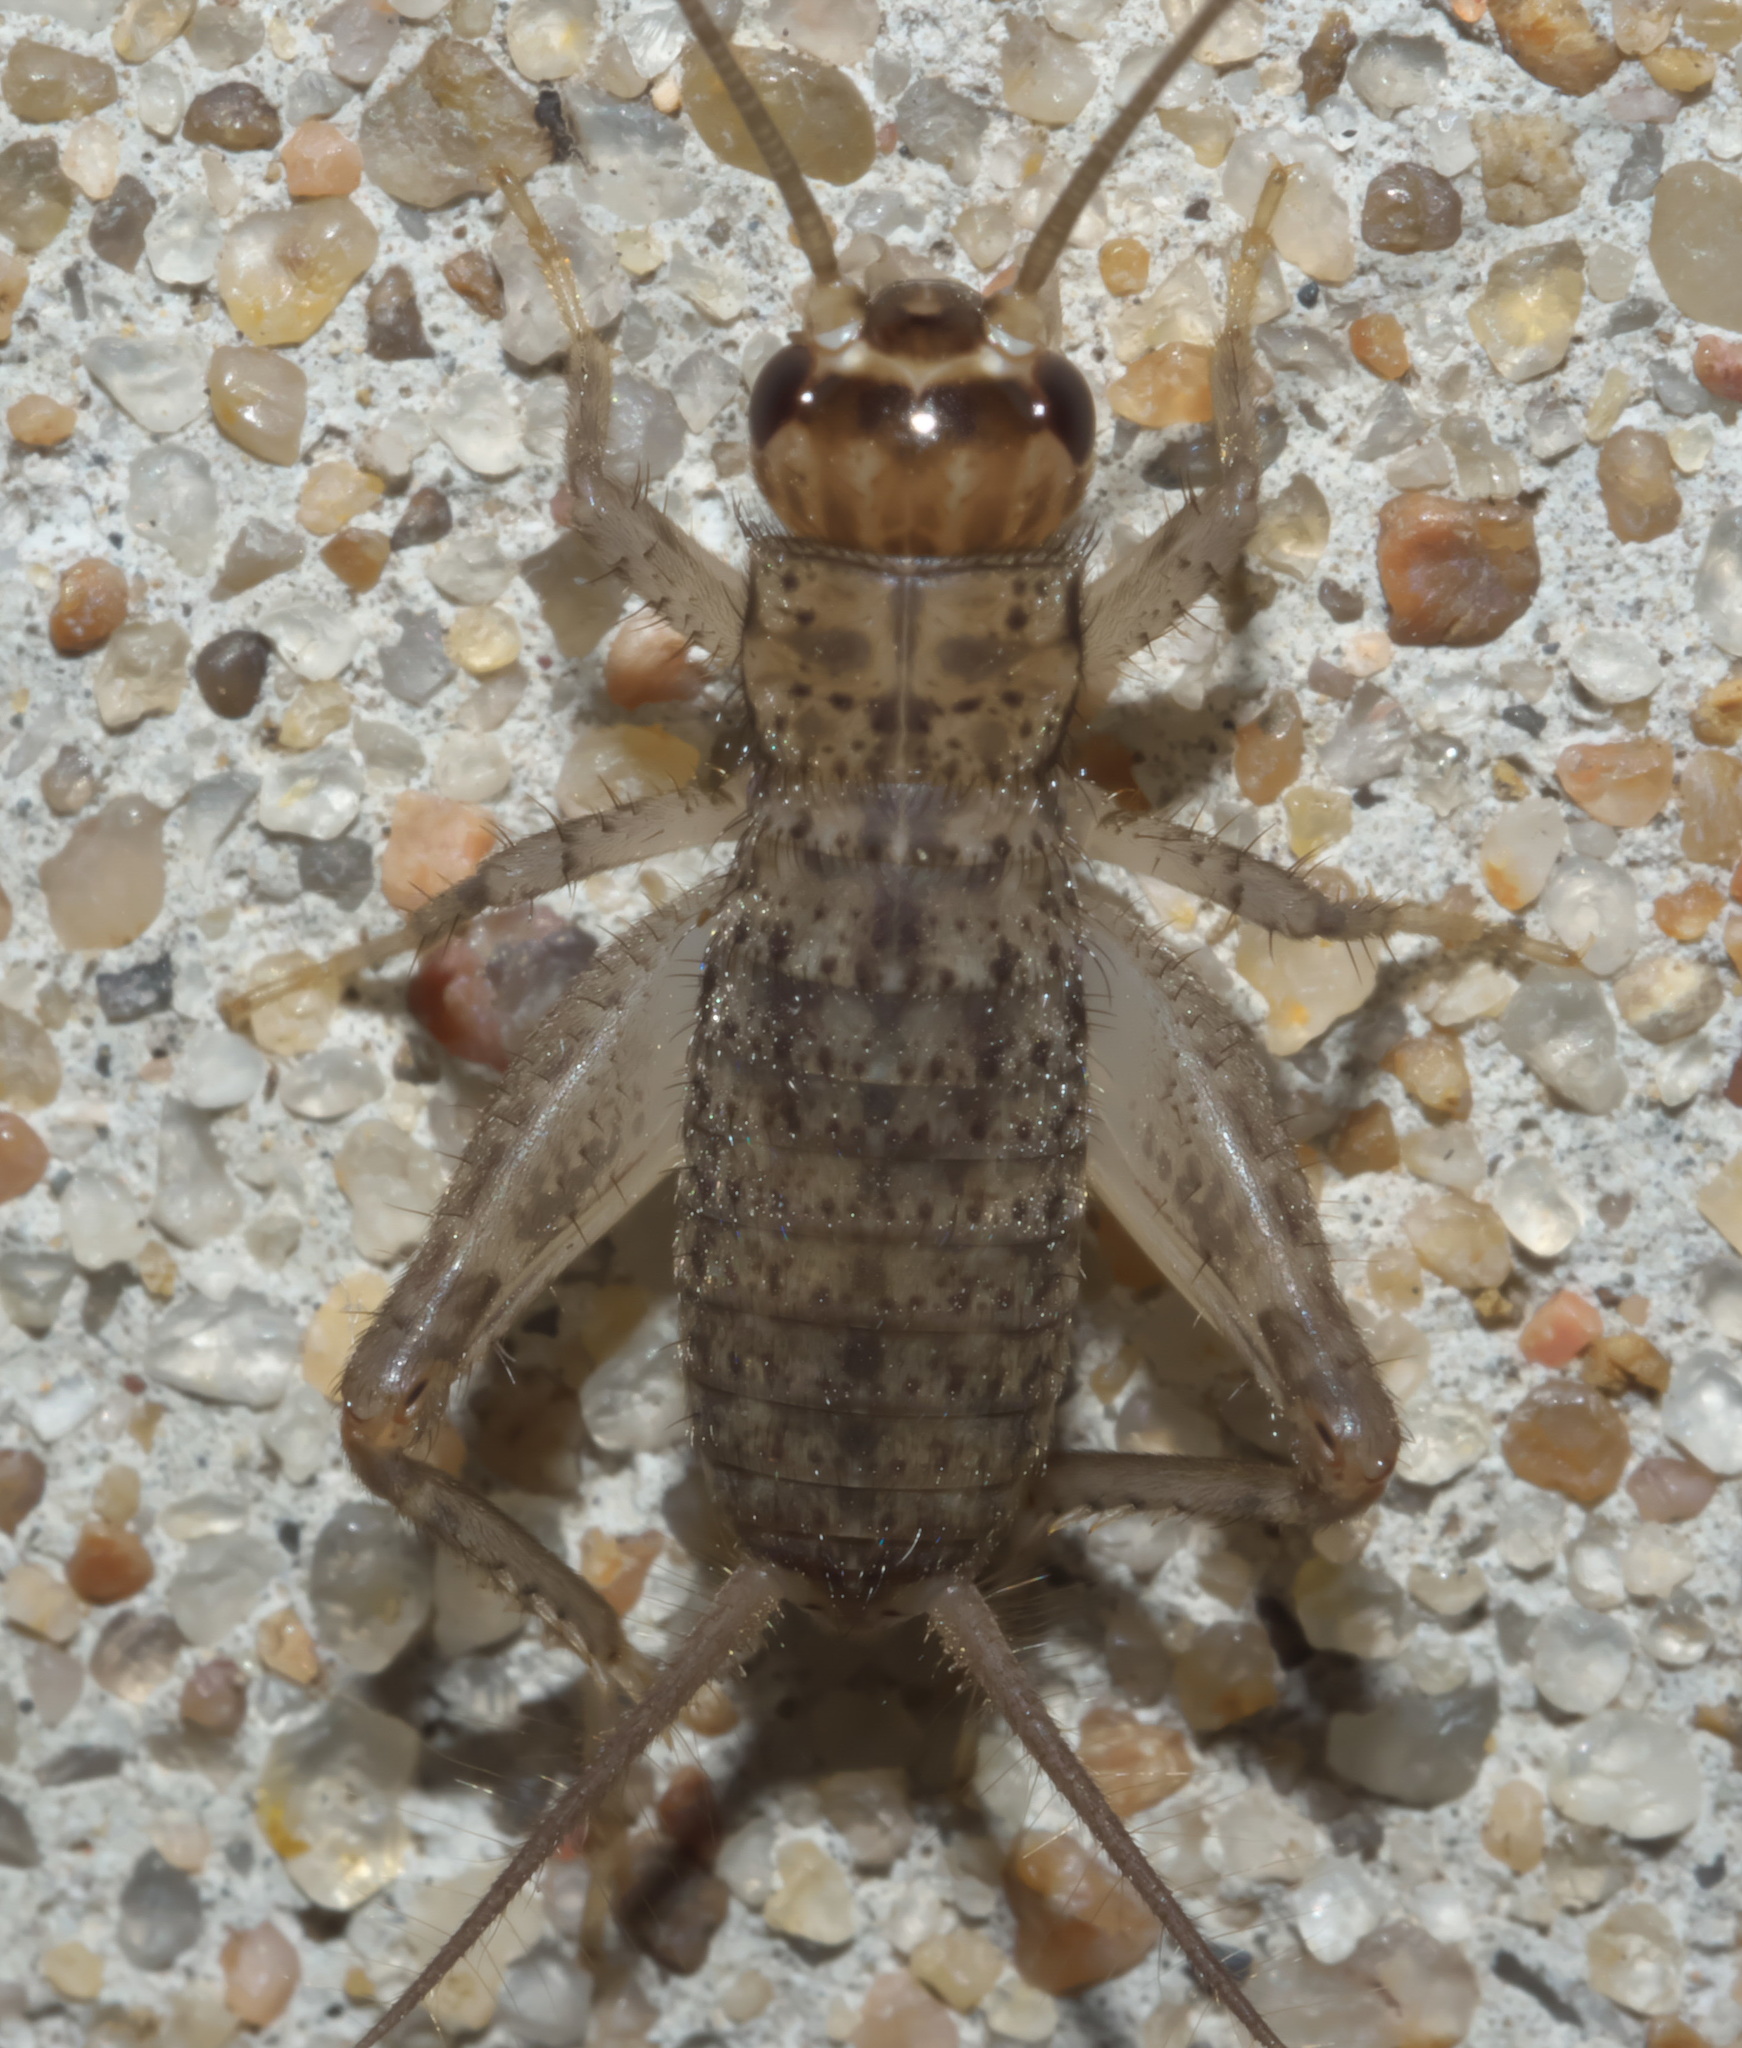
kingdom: Animalia
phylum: Arthropoda
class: Insecta
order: Orthoptera
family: Gryllidae
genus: Velarifictorus
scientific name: Velarifictorus micado
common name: Japanese burrowing cricket
